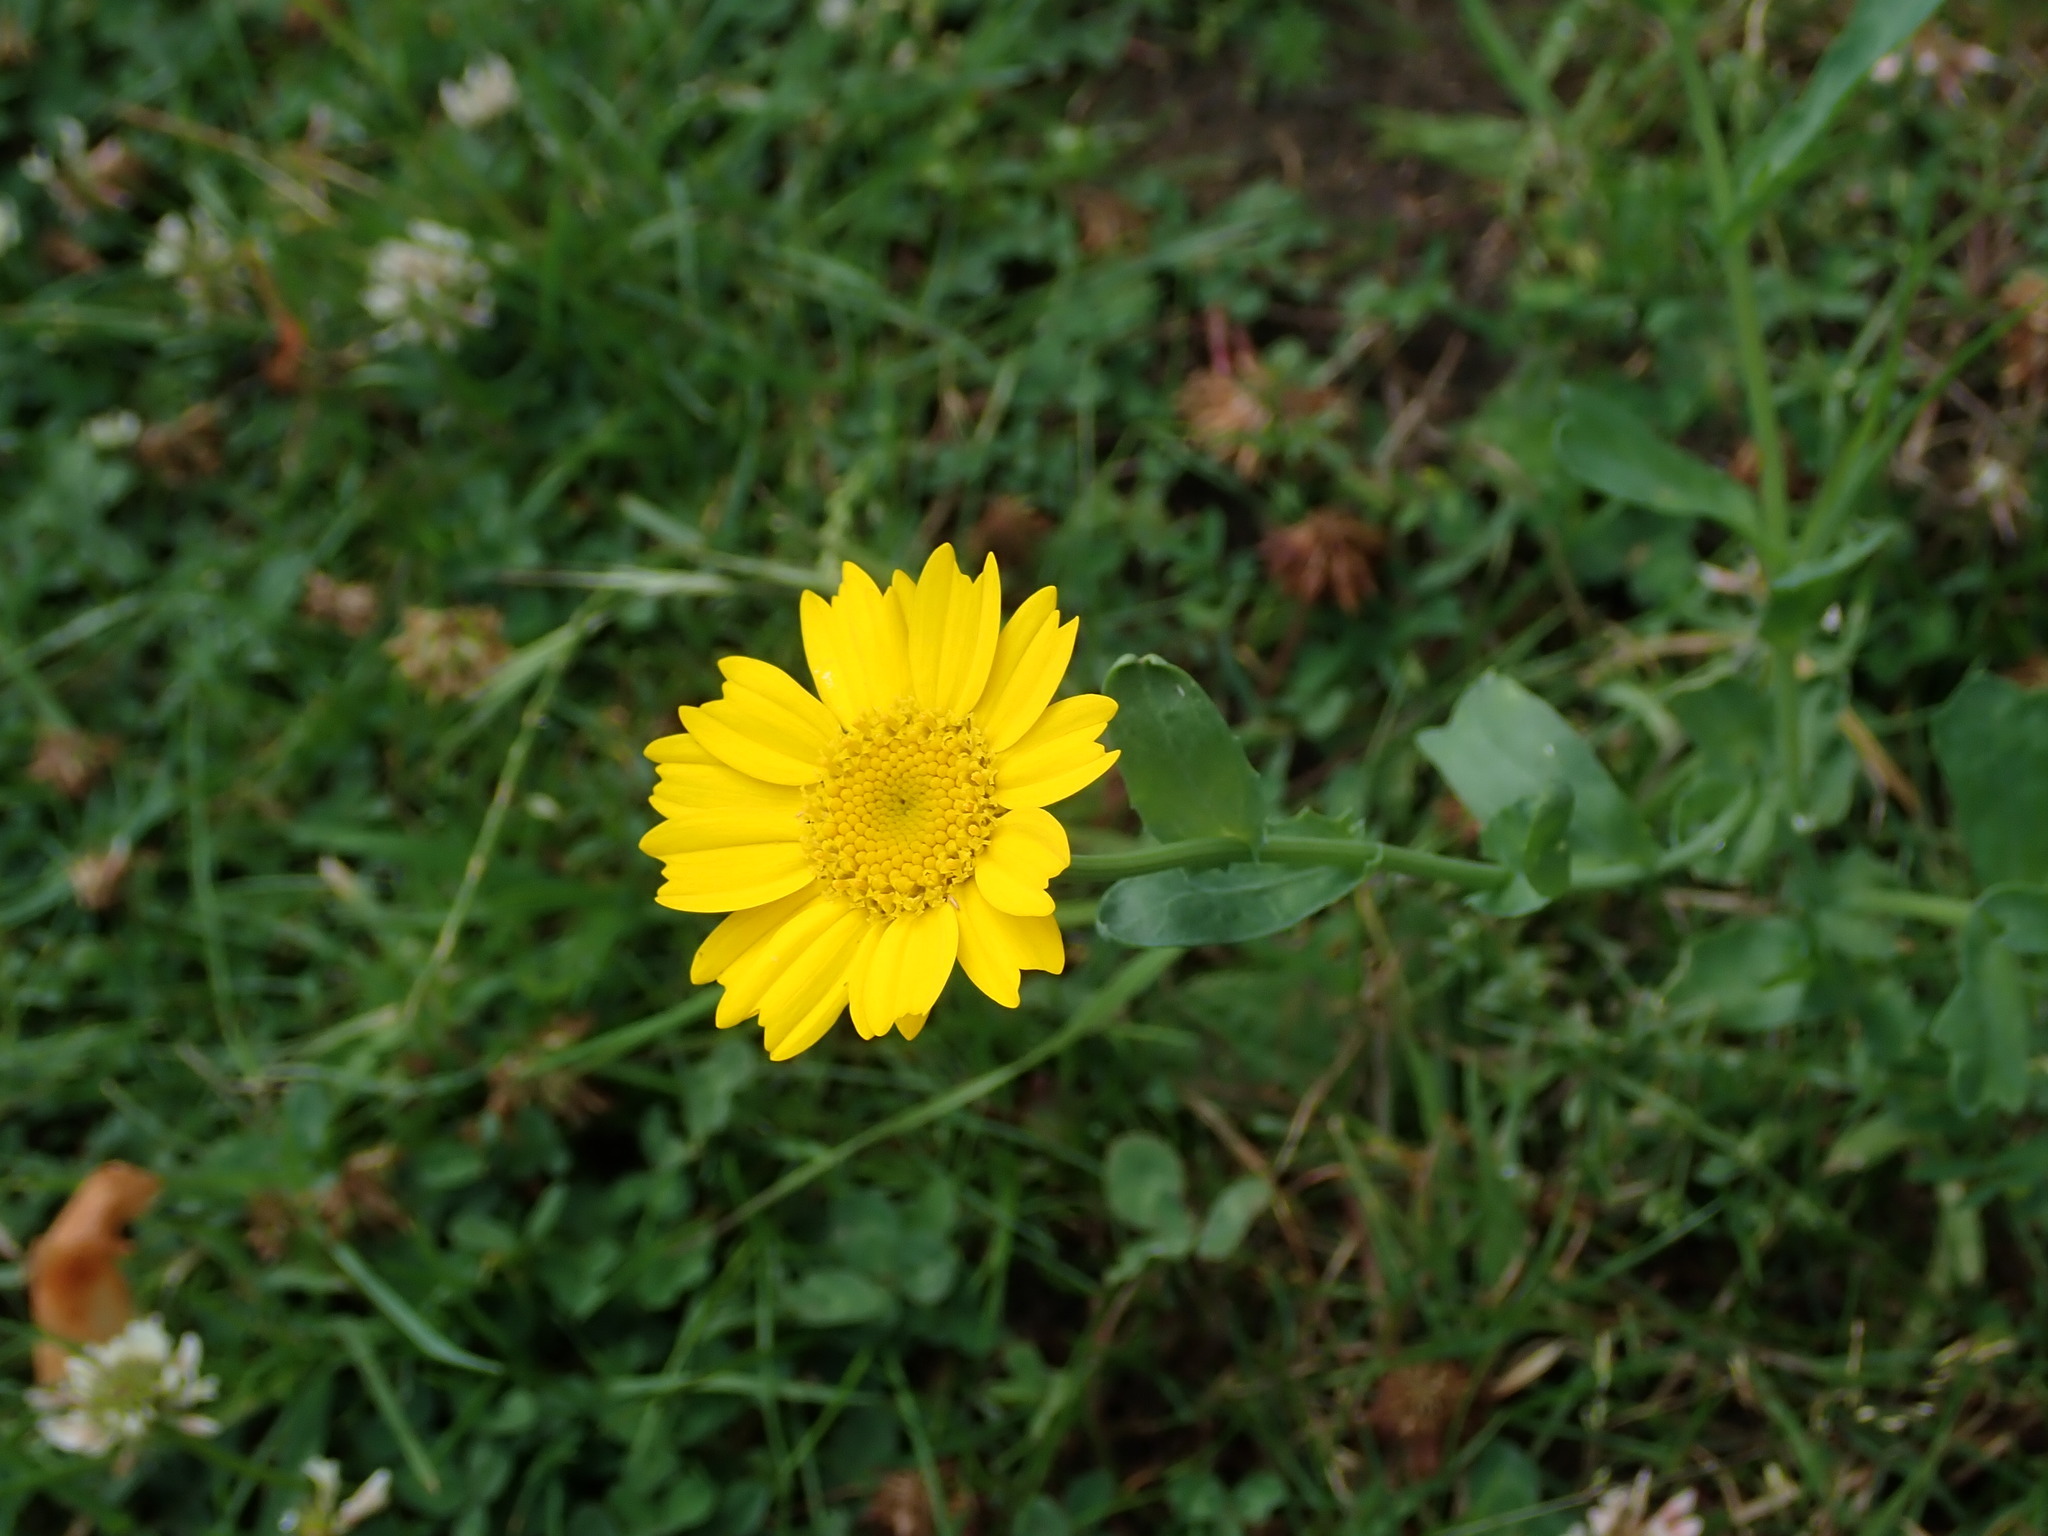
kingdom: Plantae
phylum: Tracheophyta
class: Magnoliopsida
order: Asterales
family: Asteraceae
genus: Glebionis
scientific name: Glebionis segetum
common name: Corndaisy
